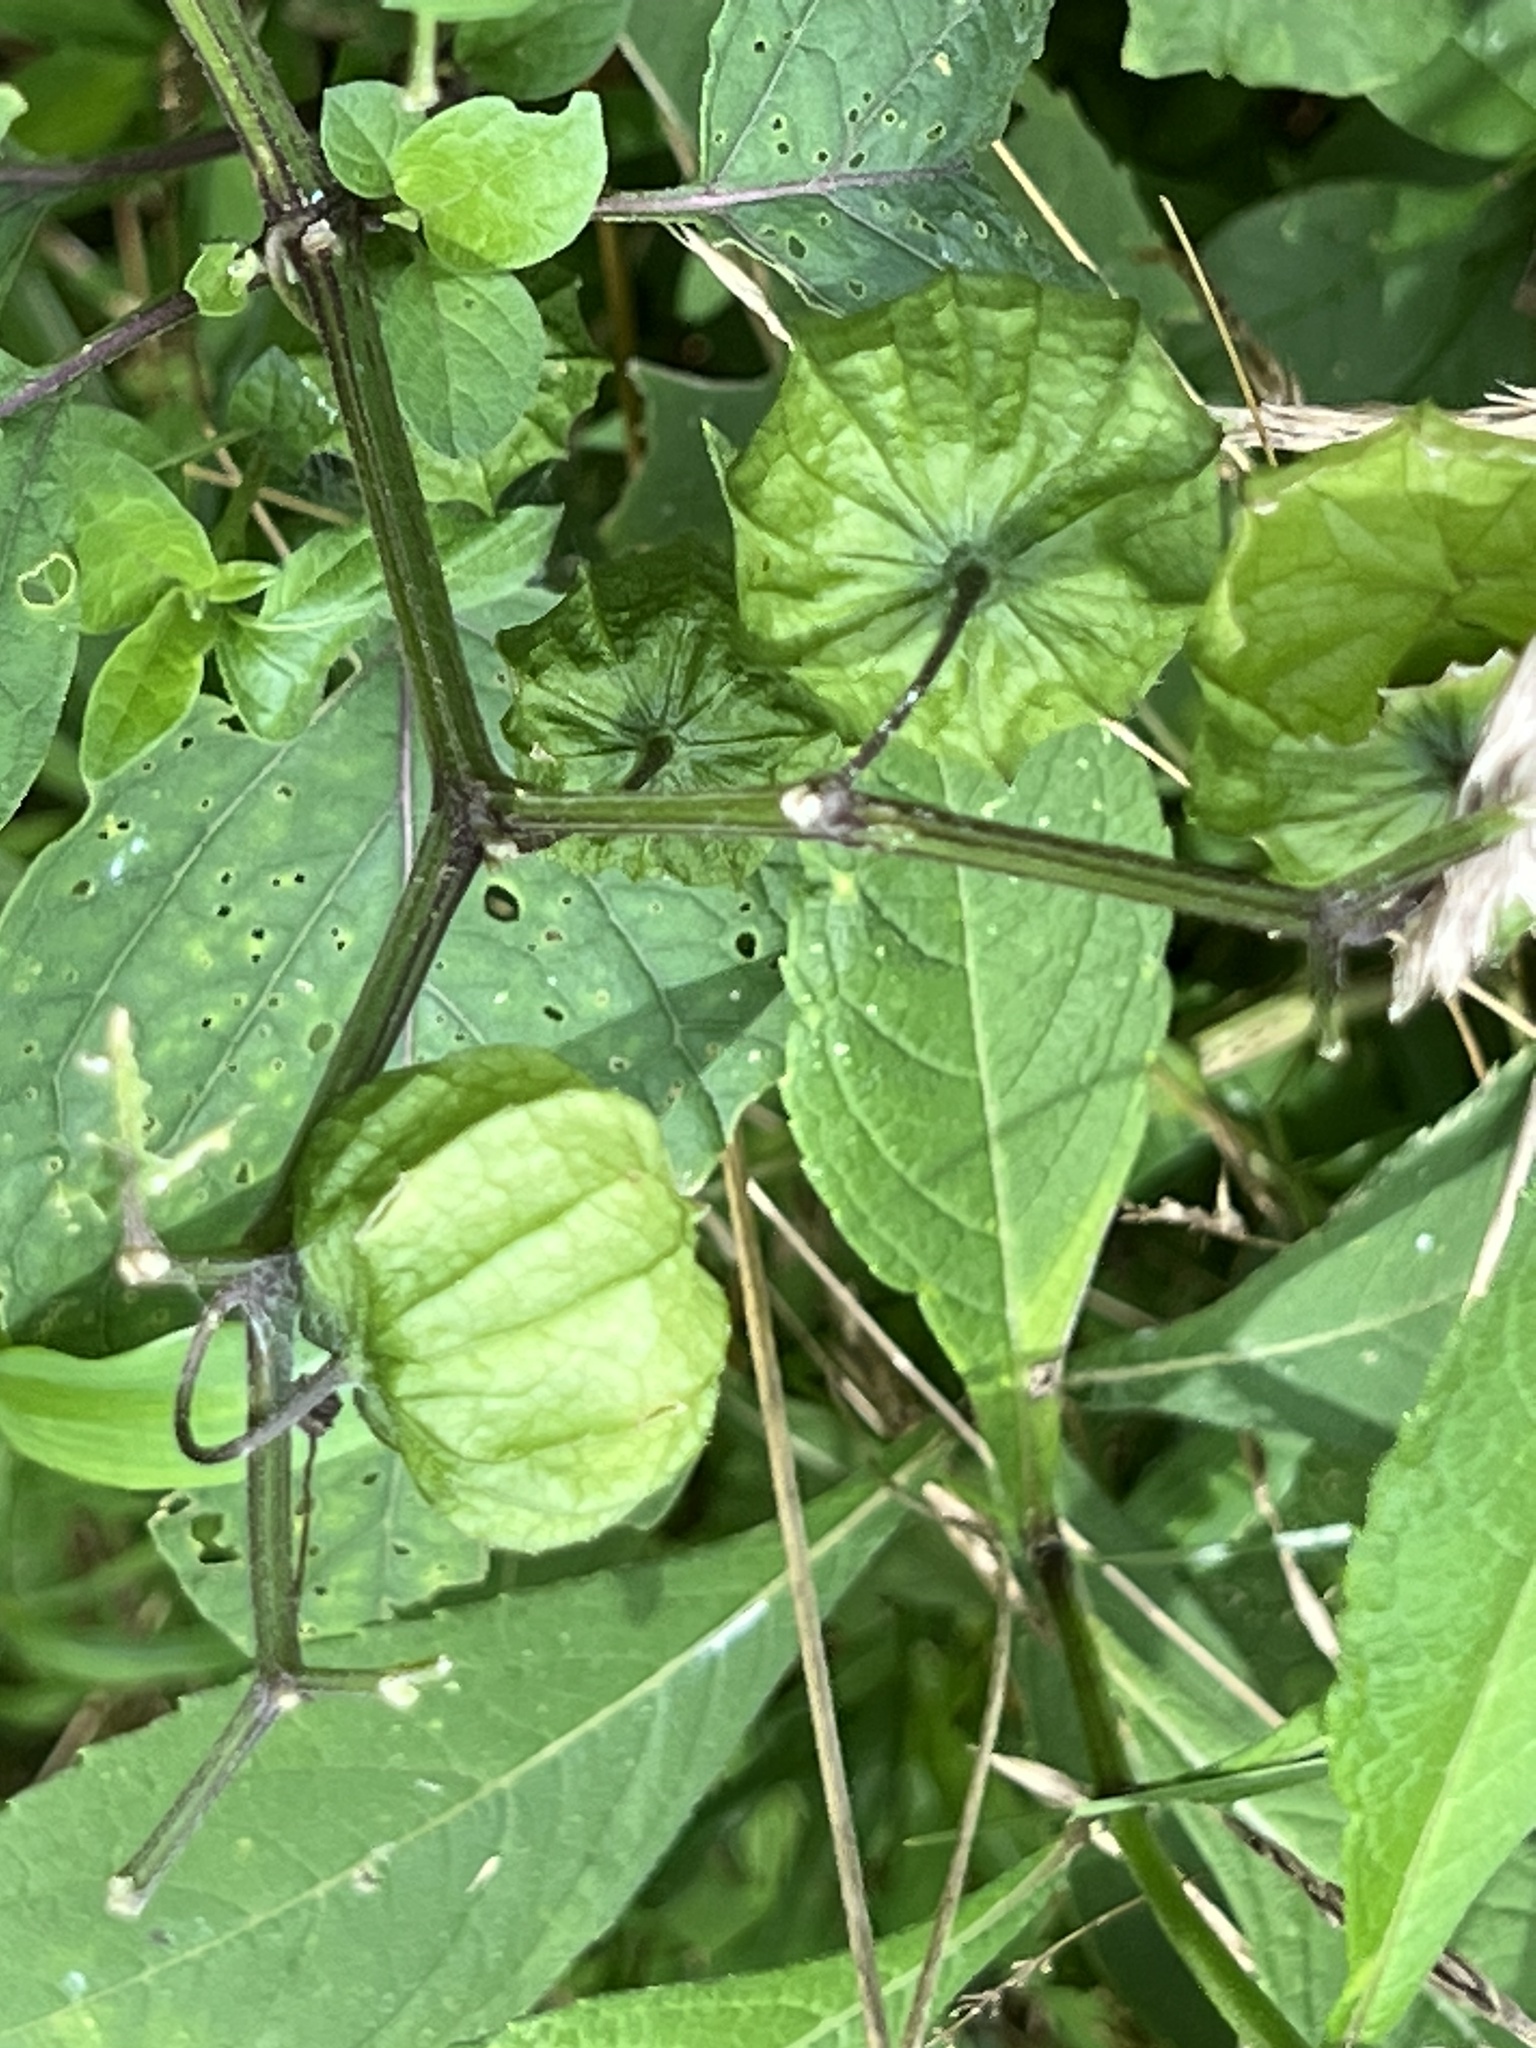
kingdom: Plantae
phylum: Tracheophyta
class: Magnoliopsida
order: Solanales
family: Solanaceae
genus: Physalis
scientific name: Physalis longifolia
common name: Common ground-cherry
